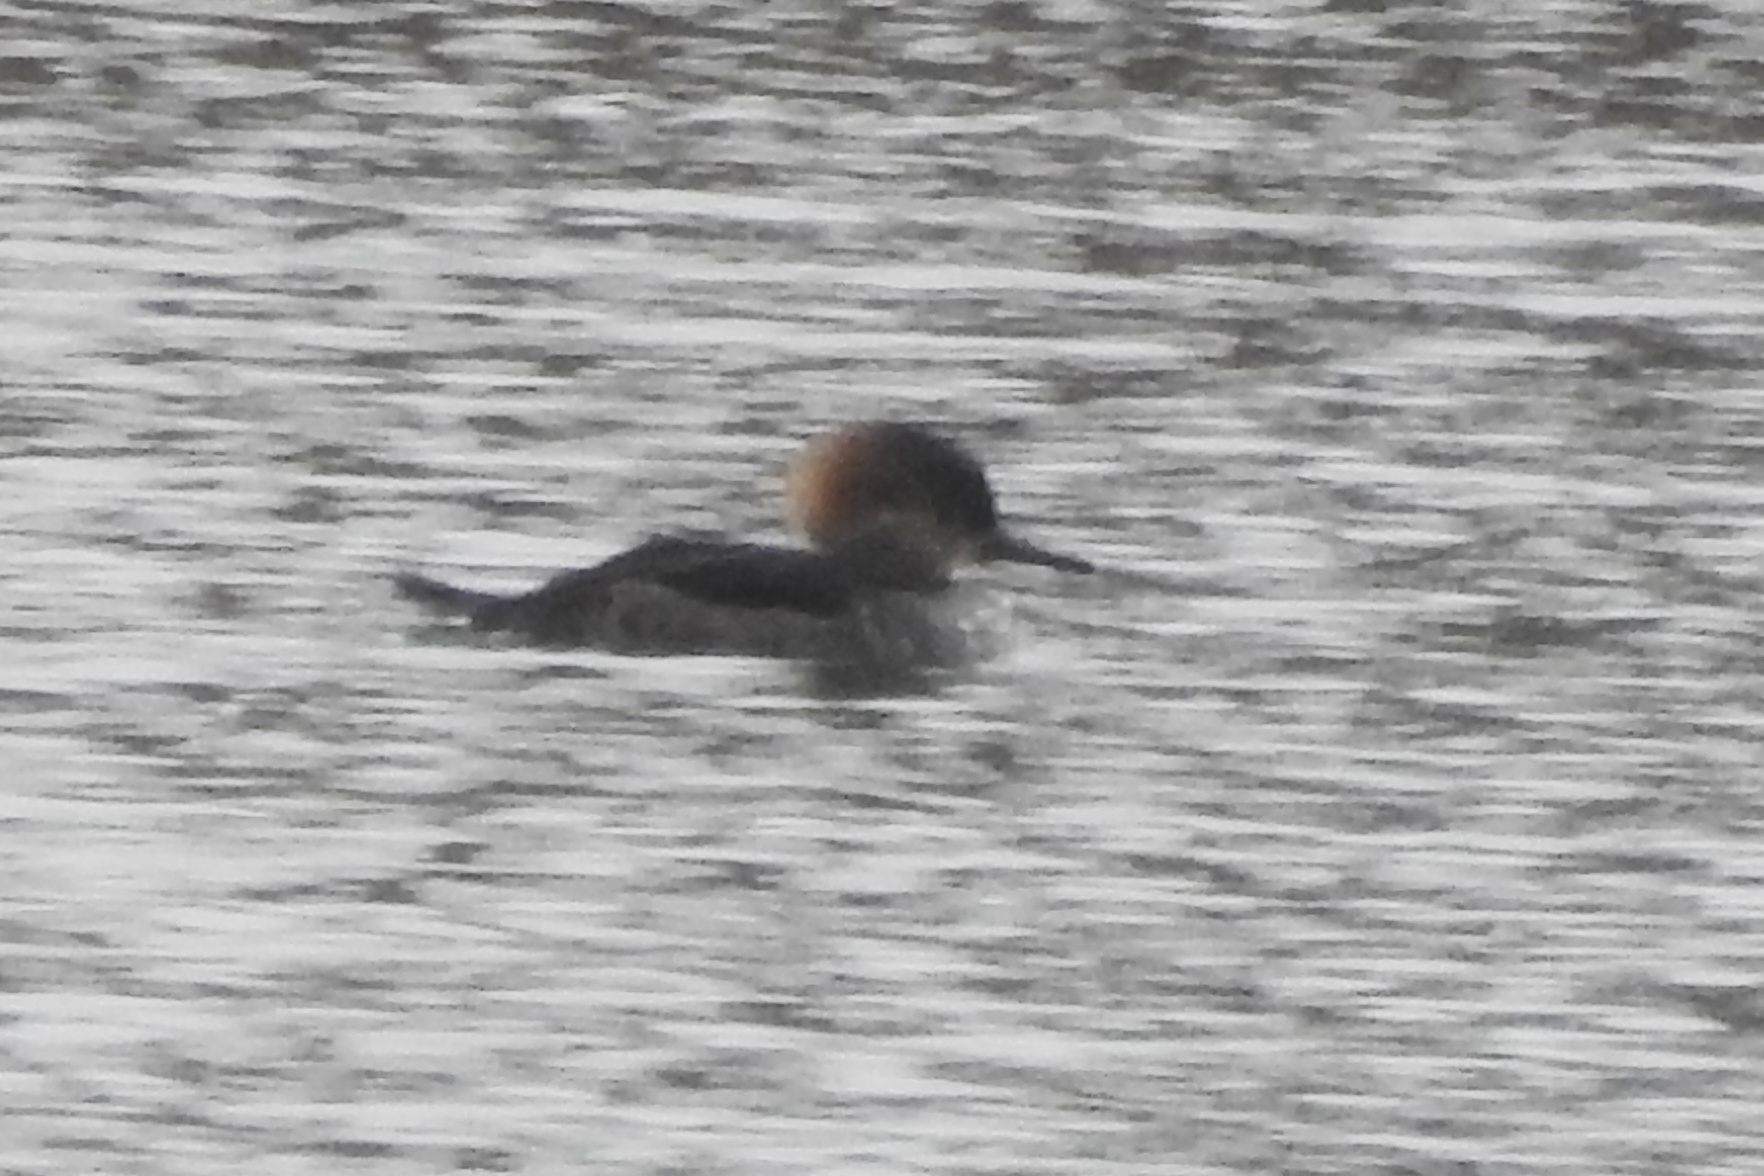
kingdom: Animalia
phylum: Chordata
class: Aves
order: Anseriformes
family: Anatidae
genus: Lophodytes
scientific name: Lophodytes cucullatus
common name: Hooded merganser
